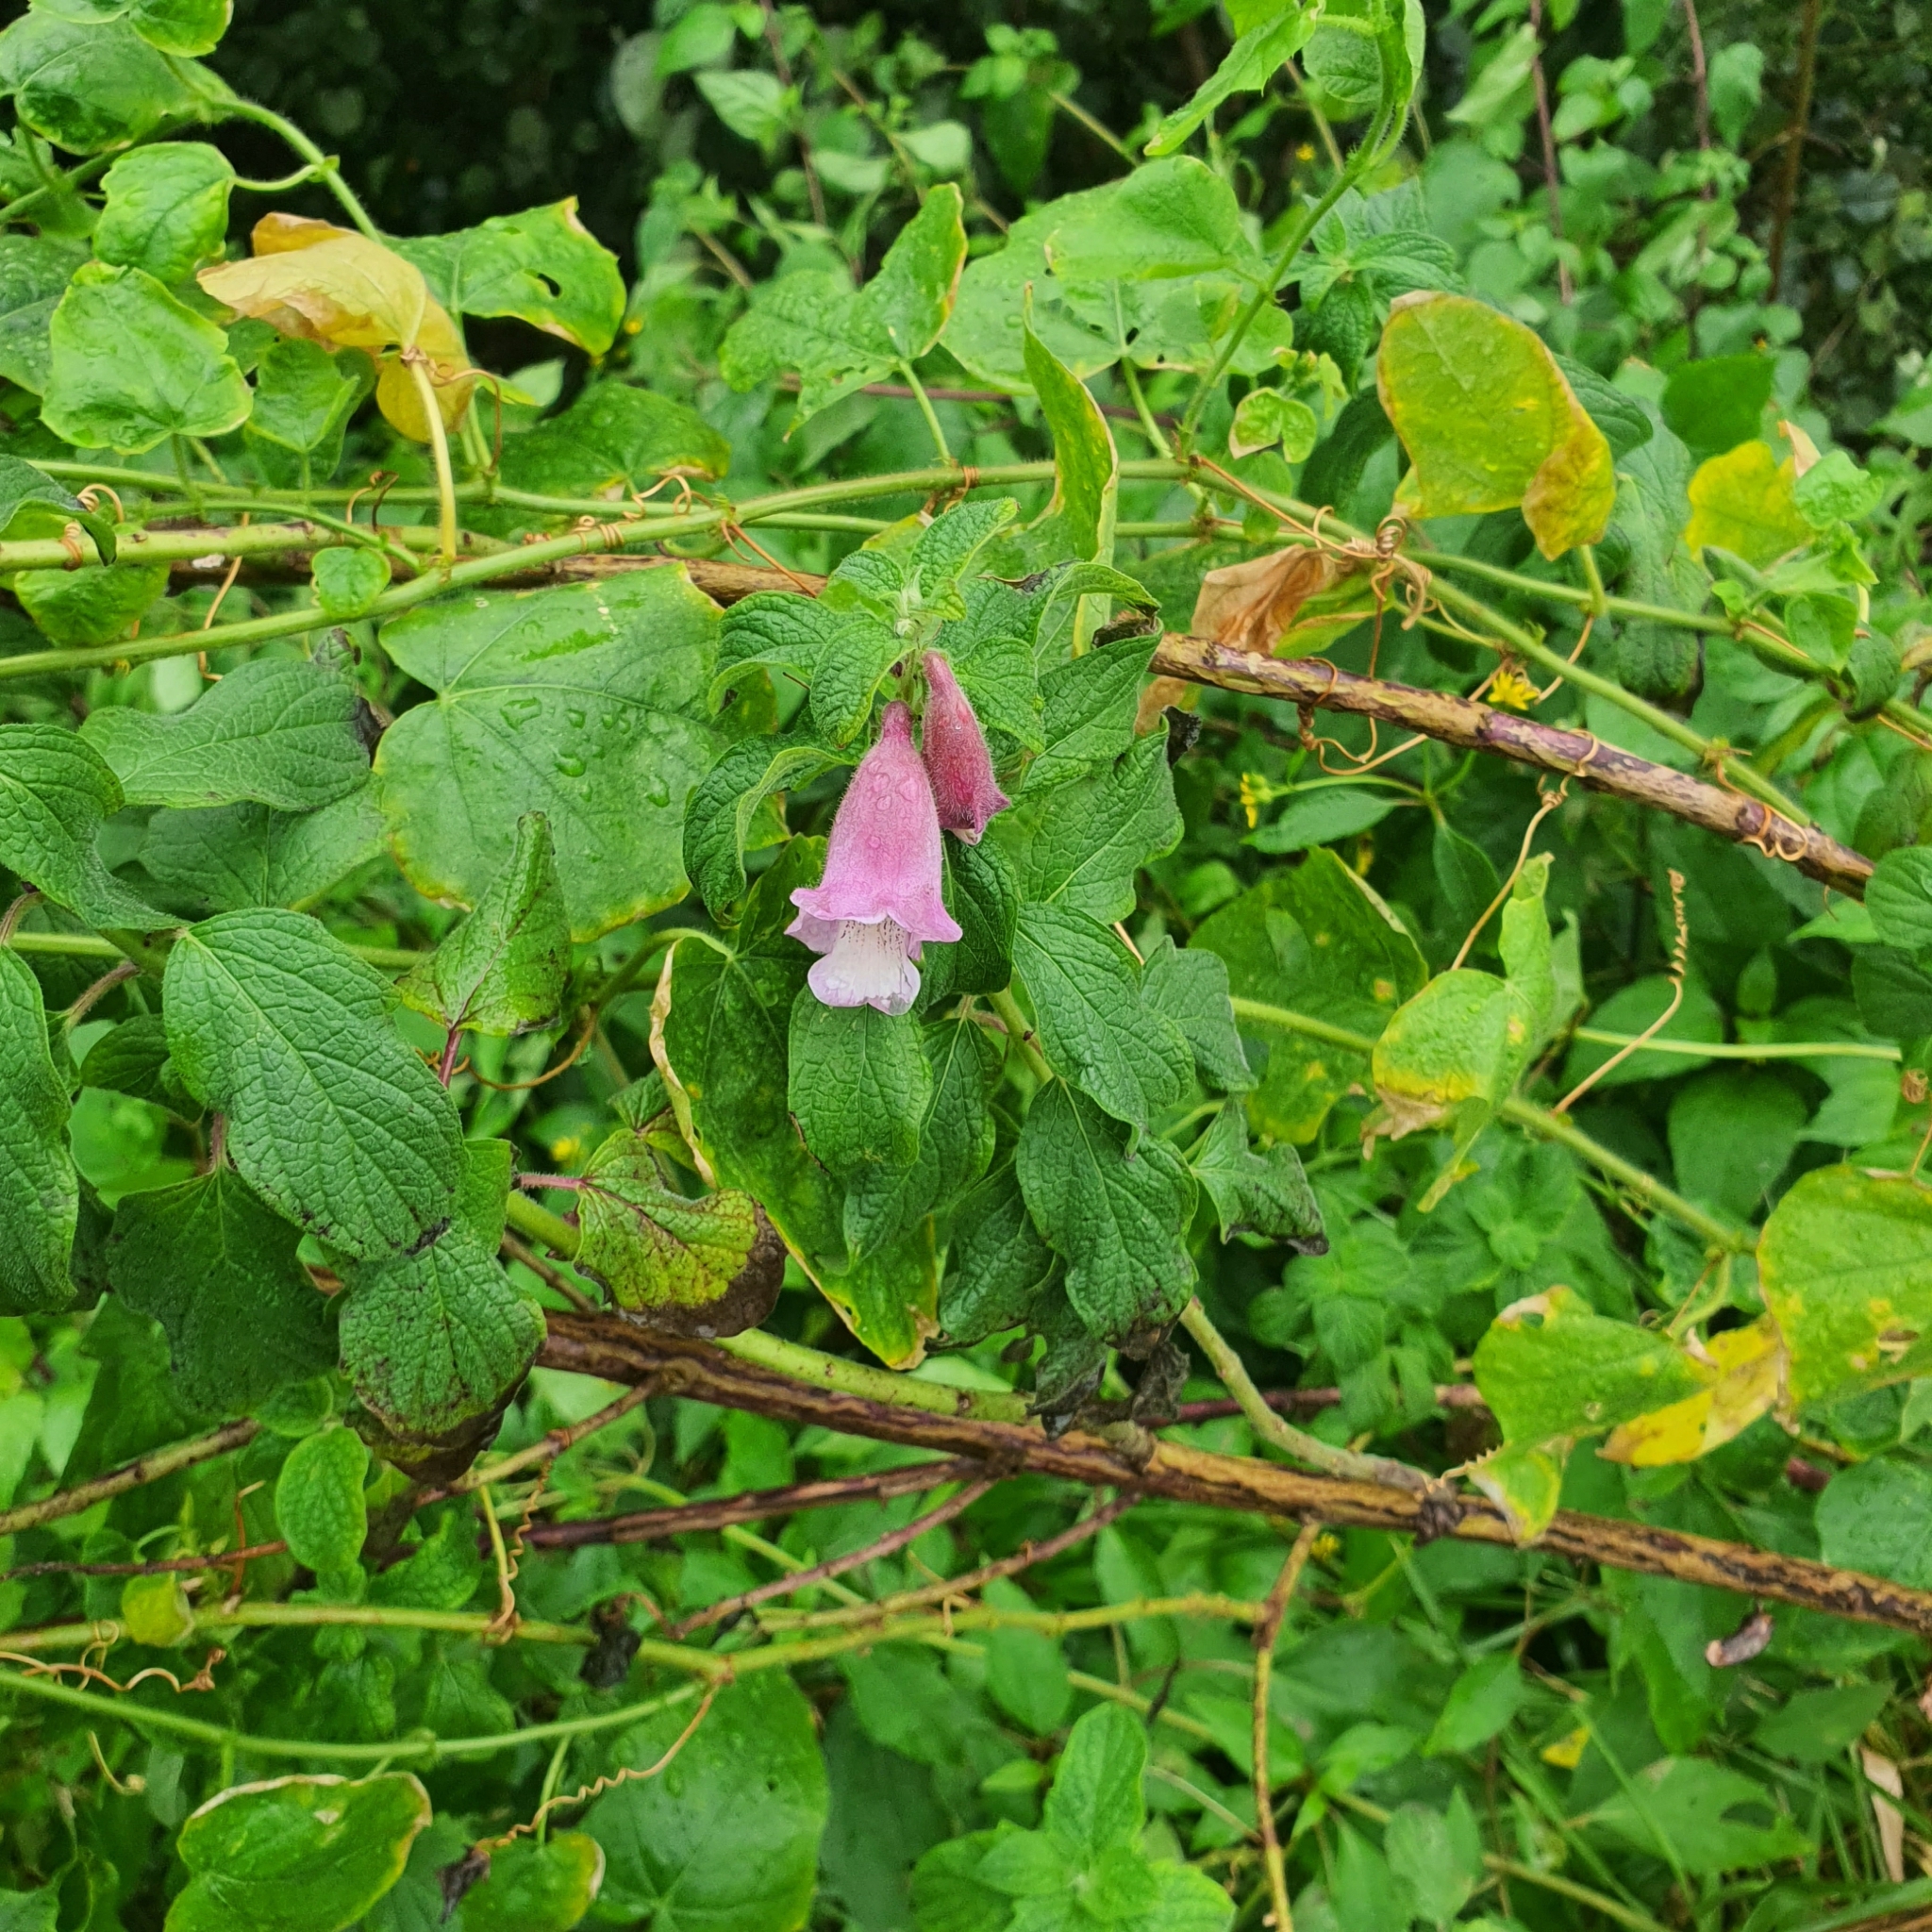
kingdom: Plantae
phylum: Tracheophyta
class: Magnoliopsida
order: Lamiales
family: Pedaliaceae
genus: Sesamum
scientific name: Sesamum radiatum
